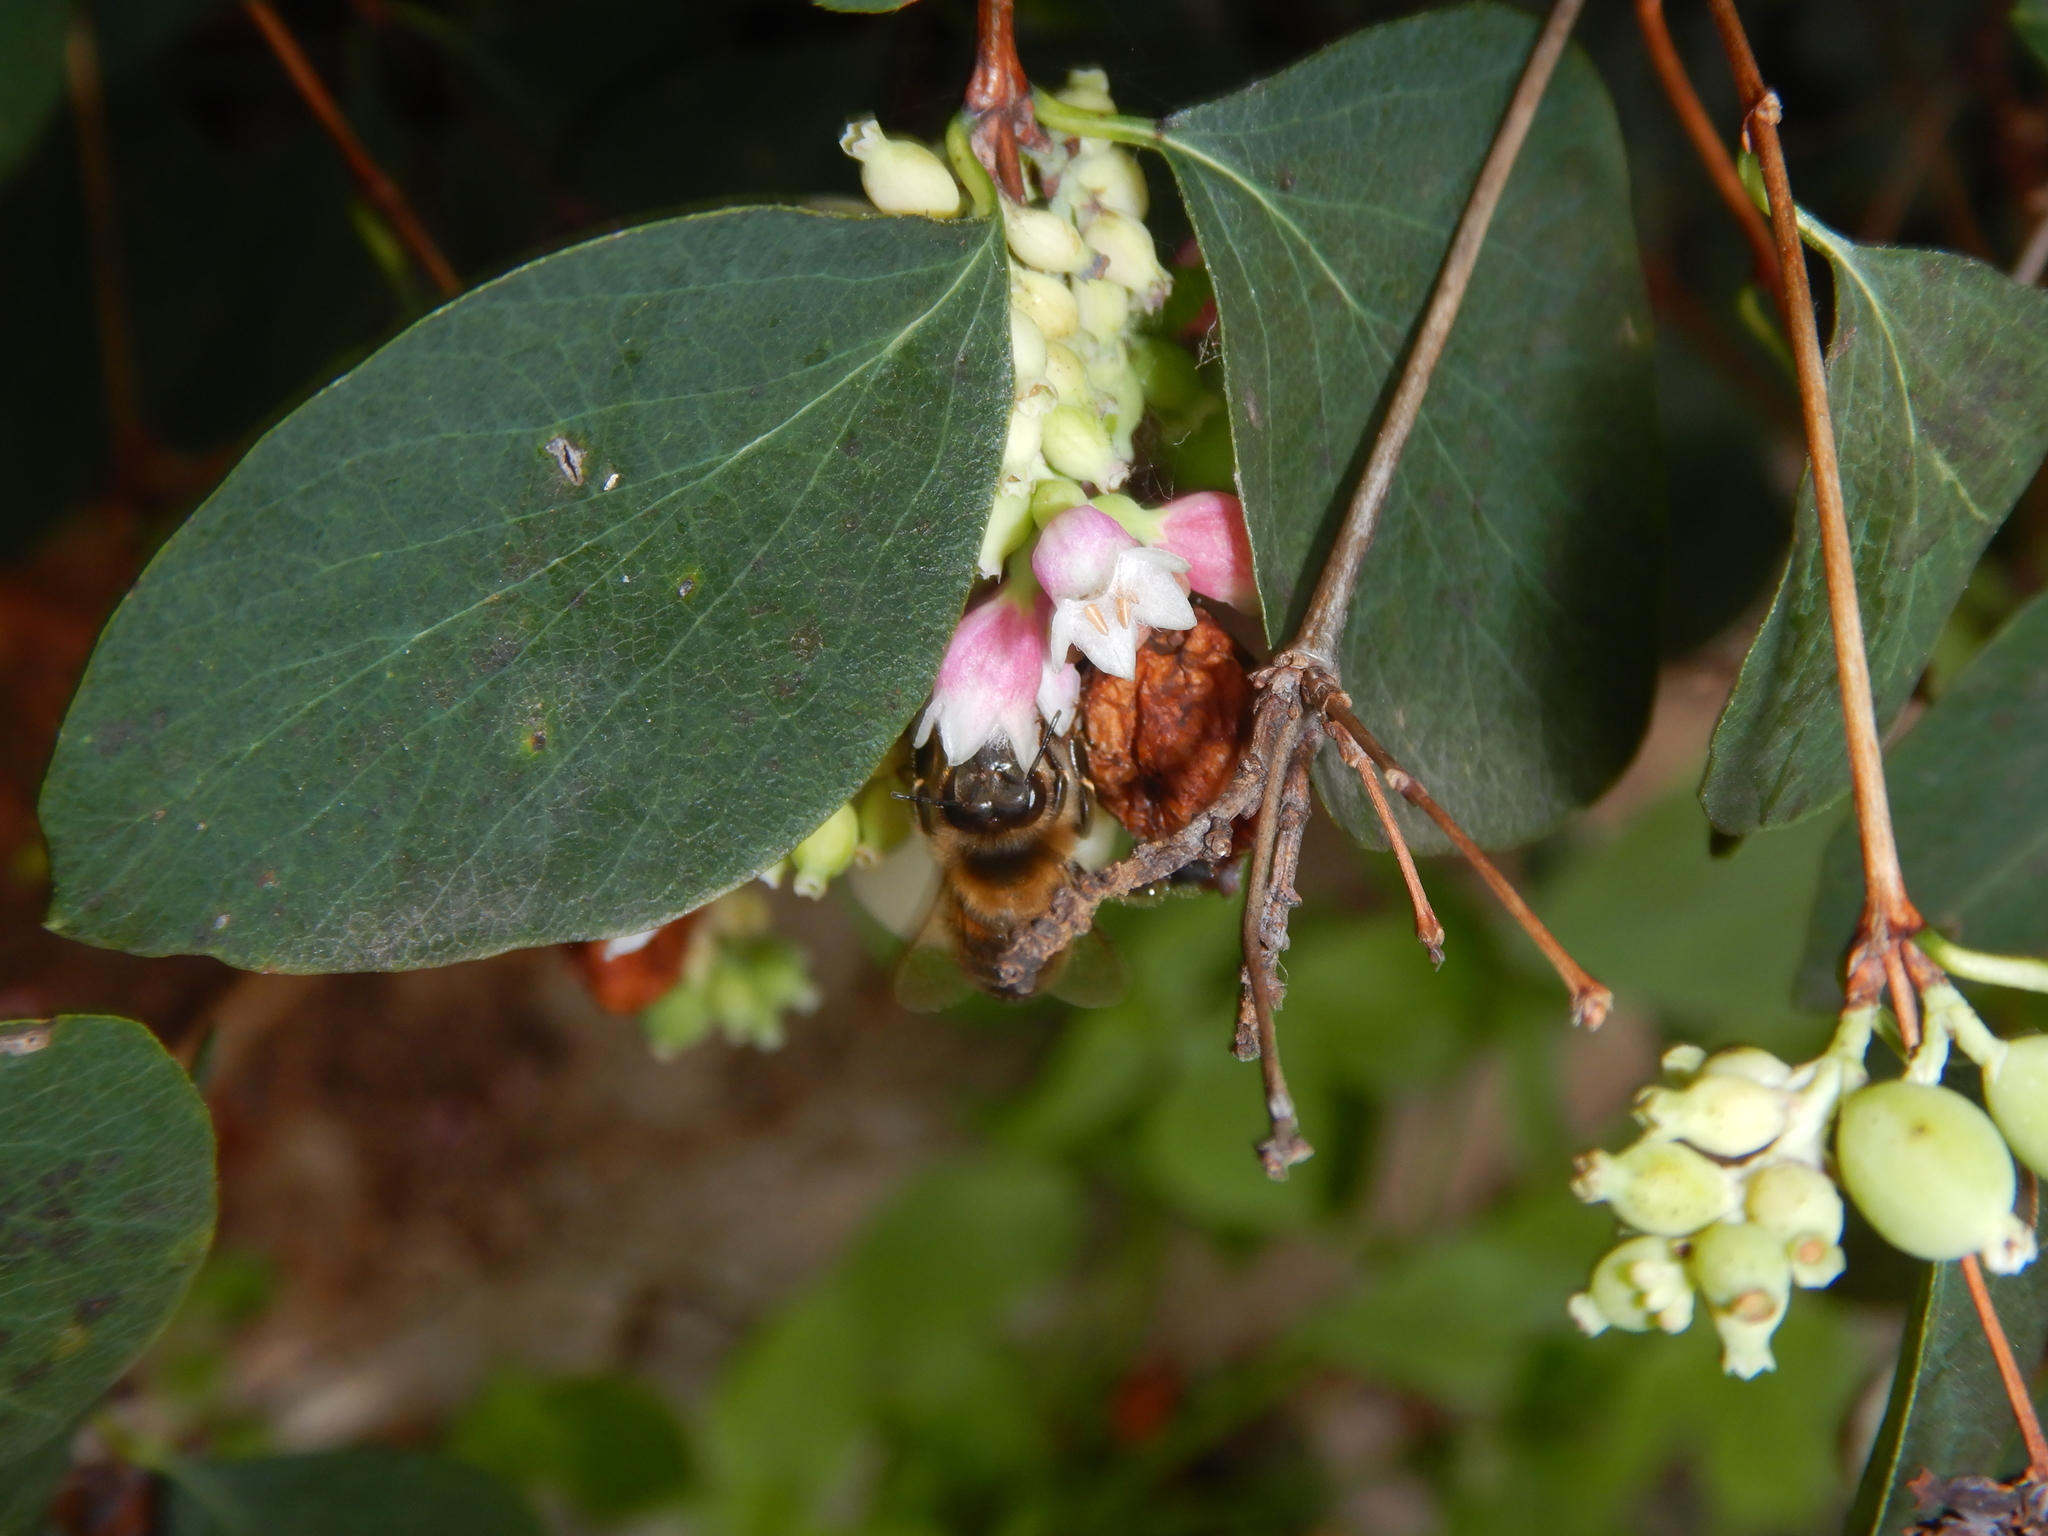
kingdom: Animalia
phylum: Arthropoda
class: Insecta
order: Hymenoptera
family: Apidae
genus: Apis
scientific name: Apis mellifera
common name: Honey bee
